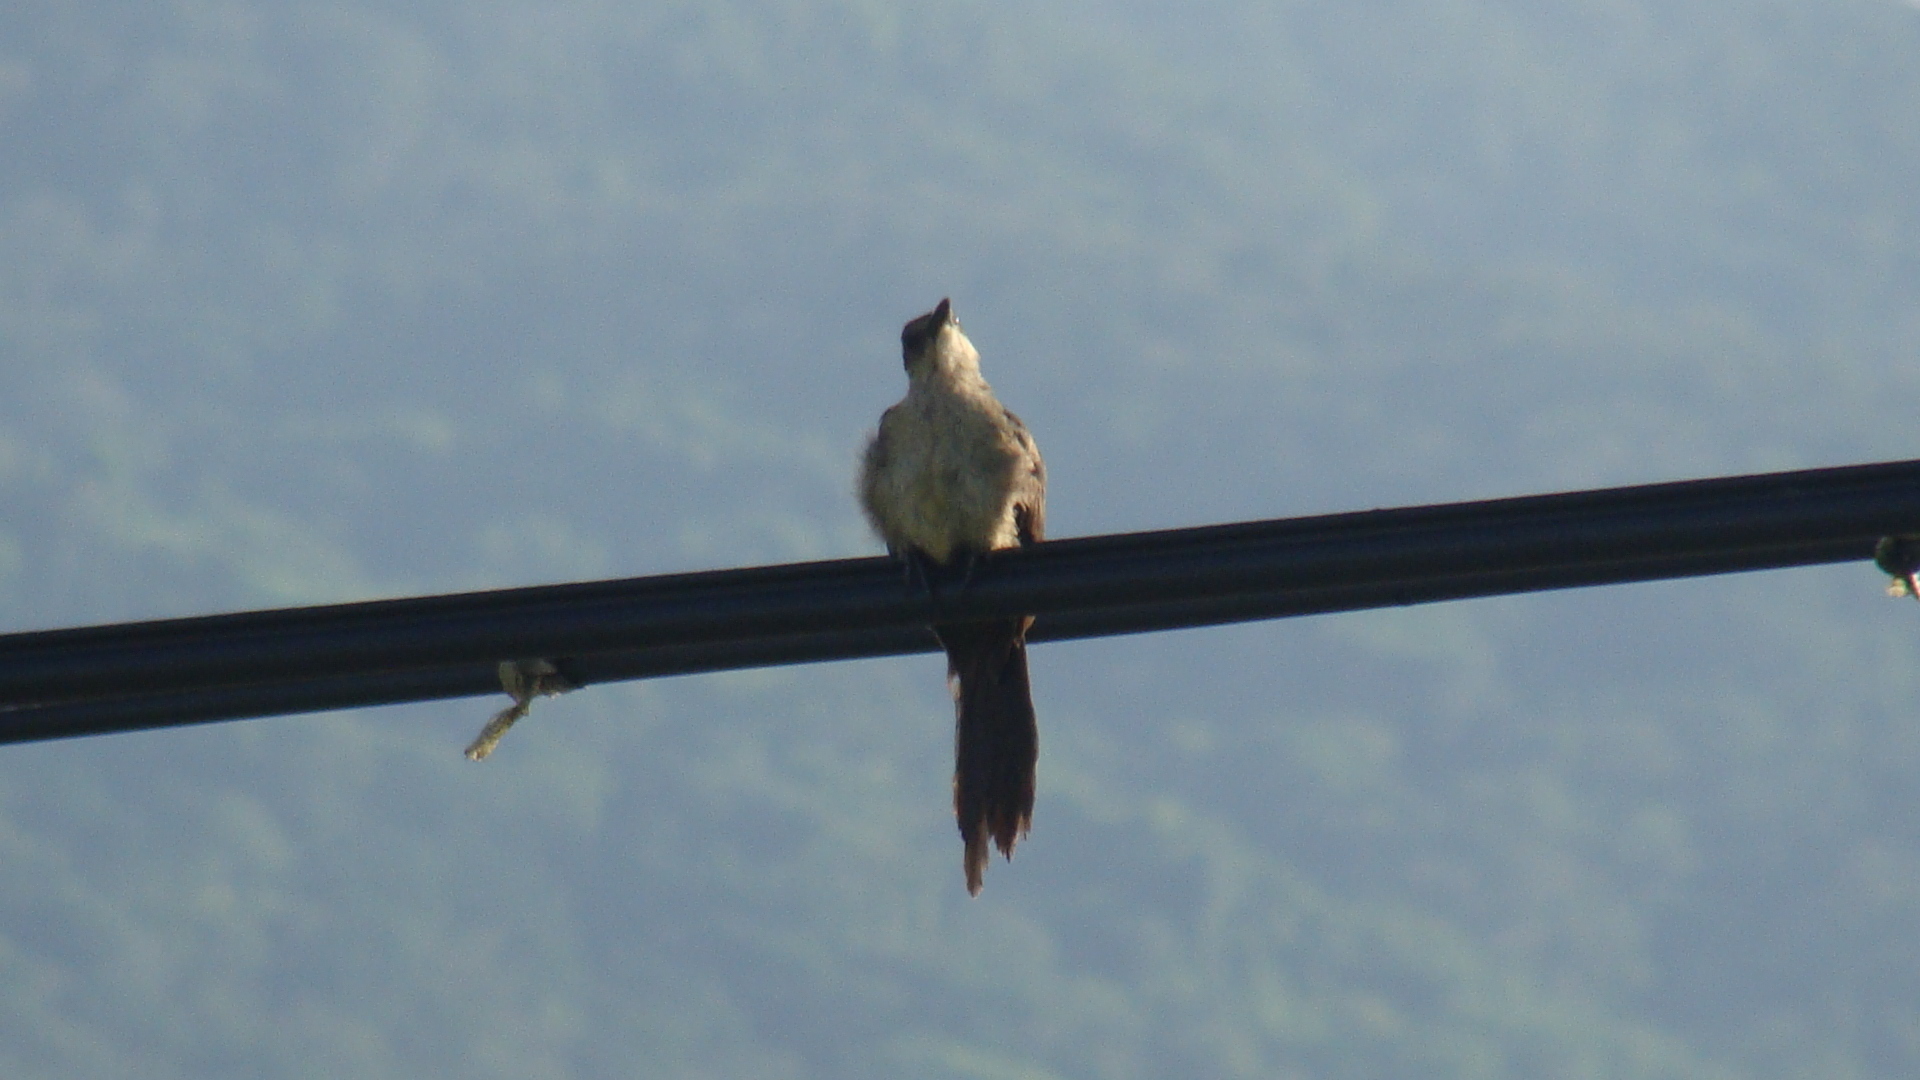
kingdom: Animalia
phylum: Chordata
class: Aves
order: Passeriformes
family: Icteridae
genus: Quiscalus
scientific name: Quiscalus mexicanus
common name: Great-tailed grackle
